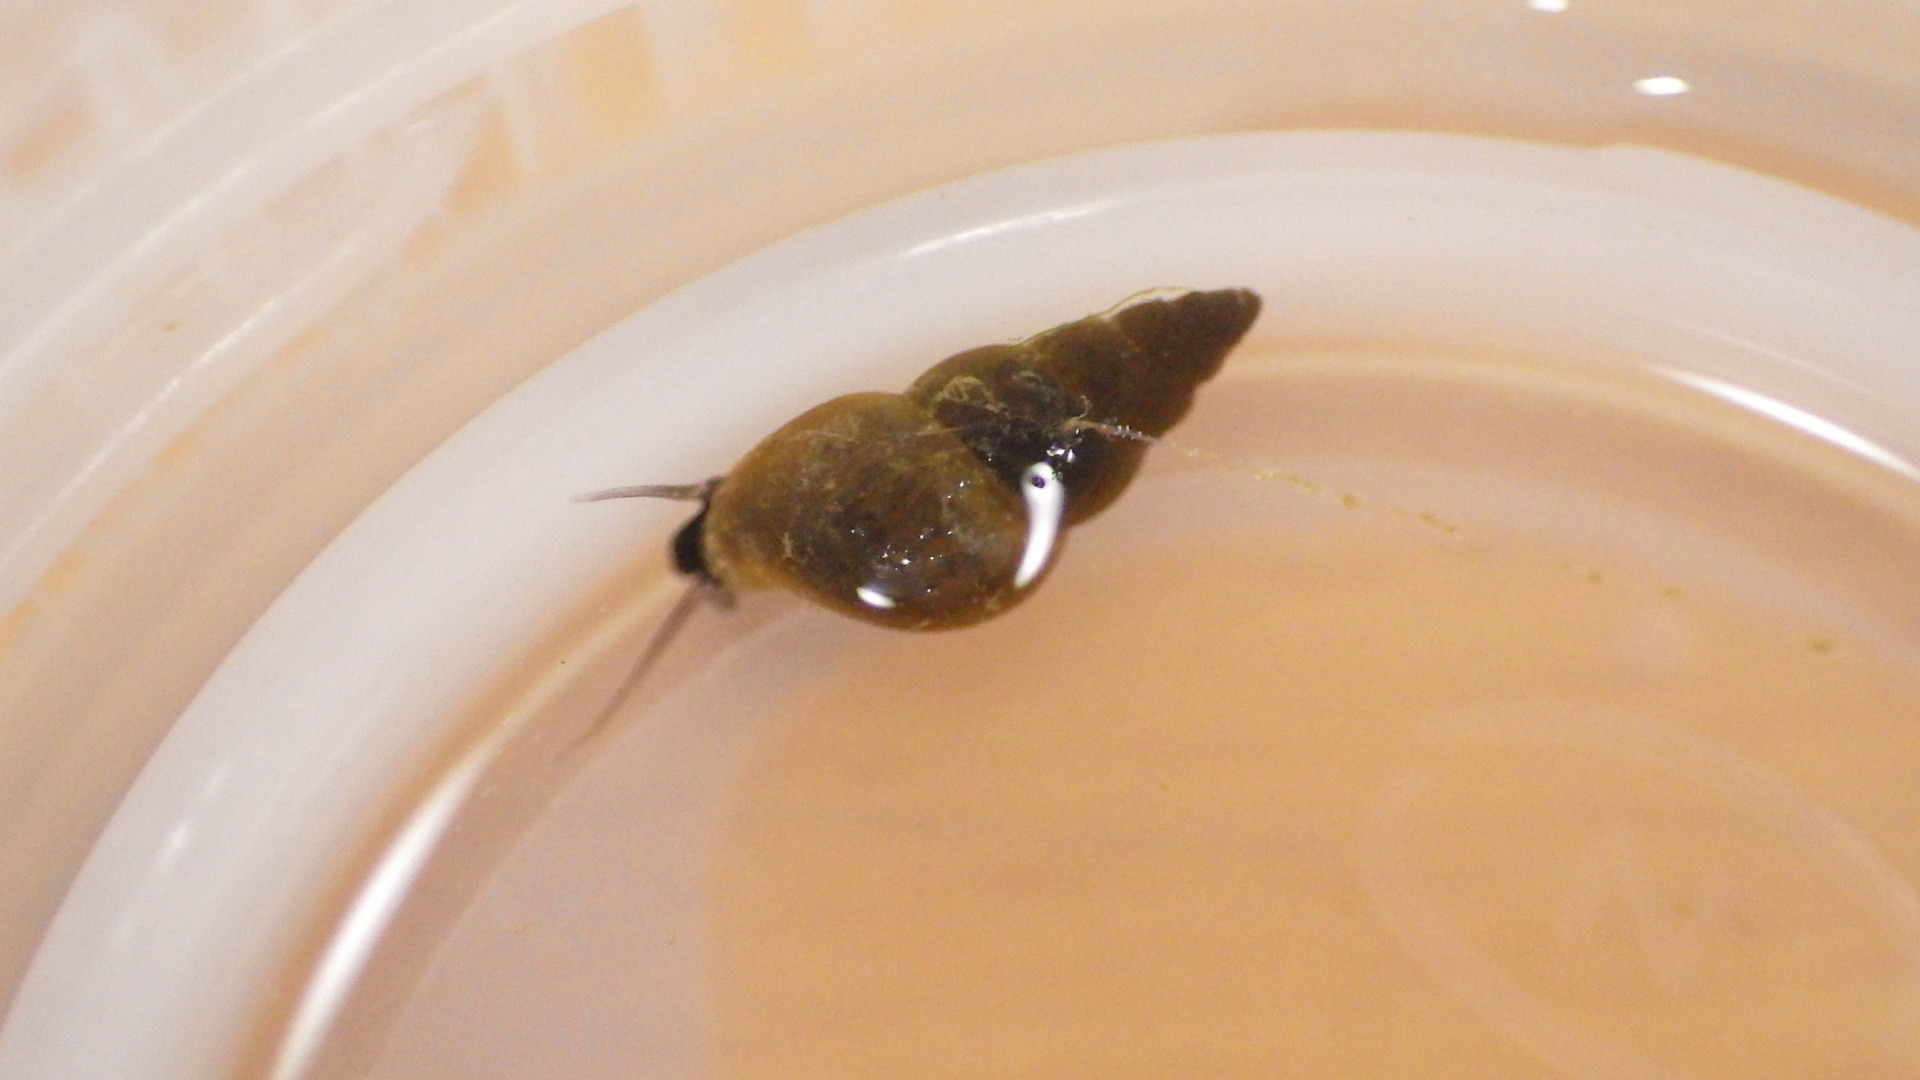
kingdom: Animalia
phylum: Mollusca
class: Gastropoda
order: Littorinimorpha
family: Tateidae
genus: Potamopyrgus
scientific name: Potamopyrgus antipodarum
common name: Jenkins' spire snail
